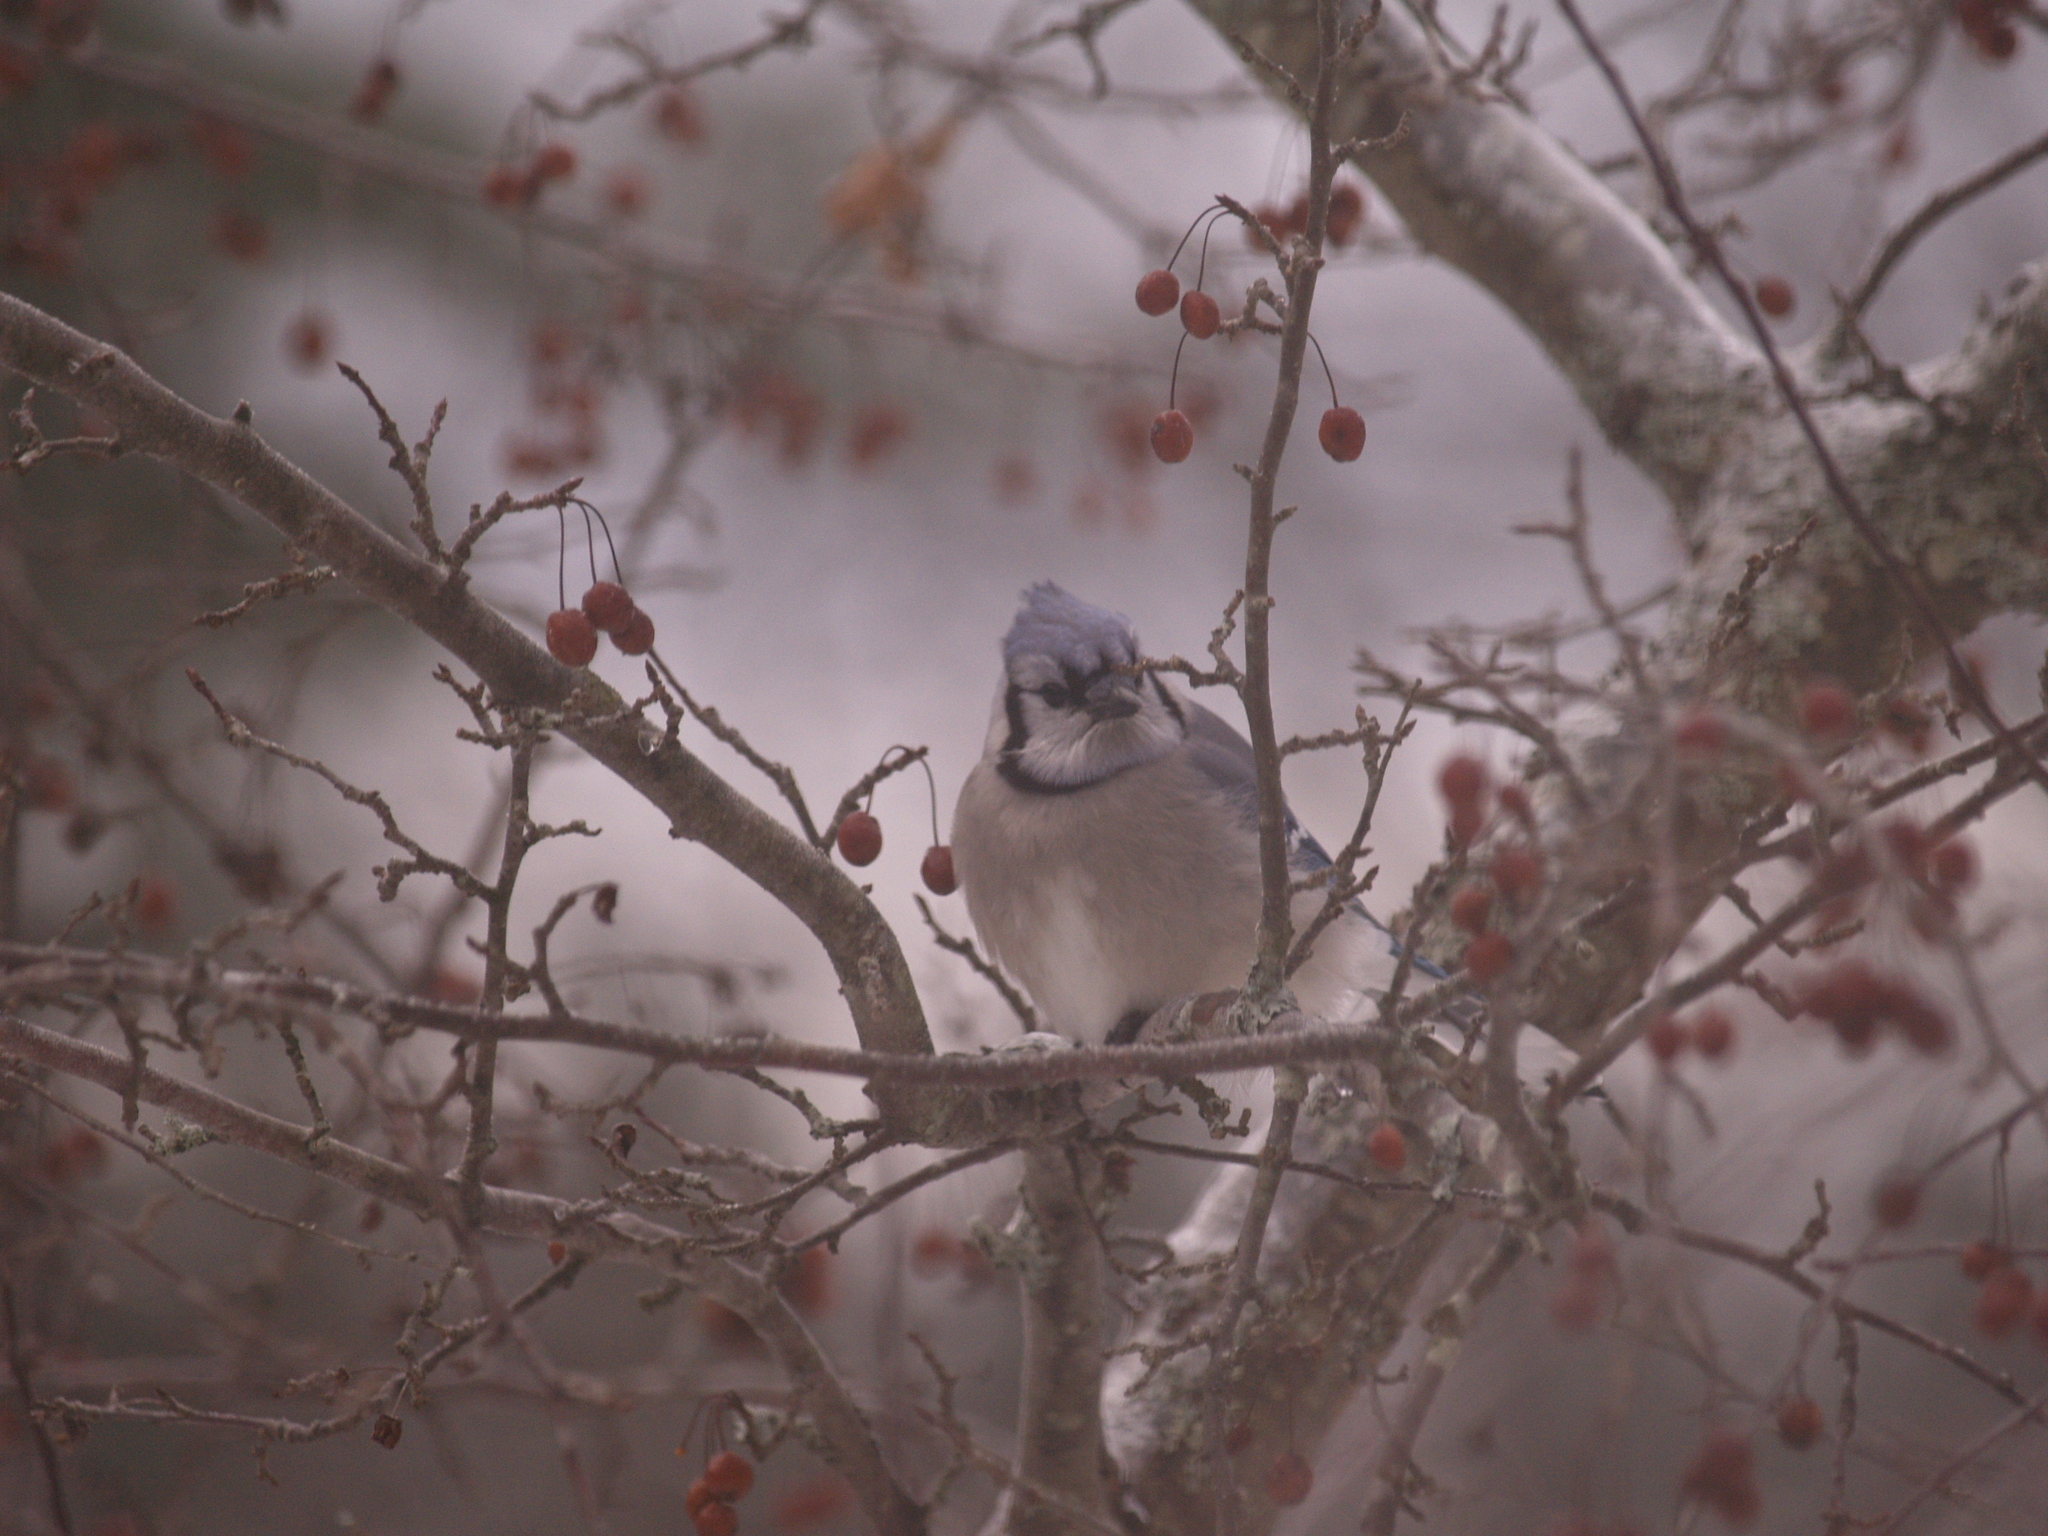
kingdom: Animalia
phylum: Chordata
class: Aves
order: Passeriformes
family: Corvidae
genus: Cyanocitta
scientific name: Cyanocitta cristata
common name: Blue jay
